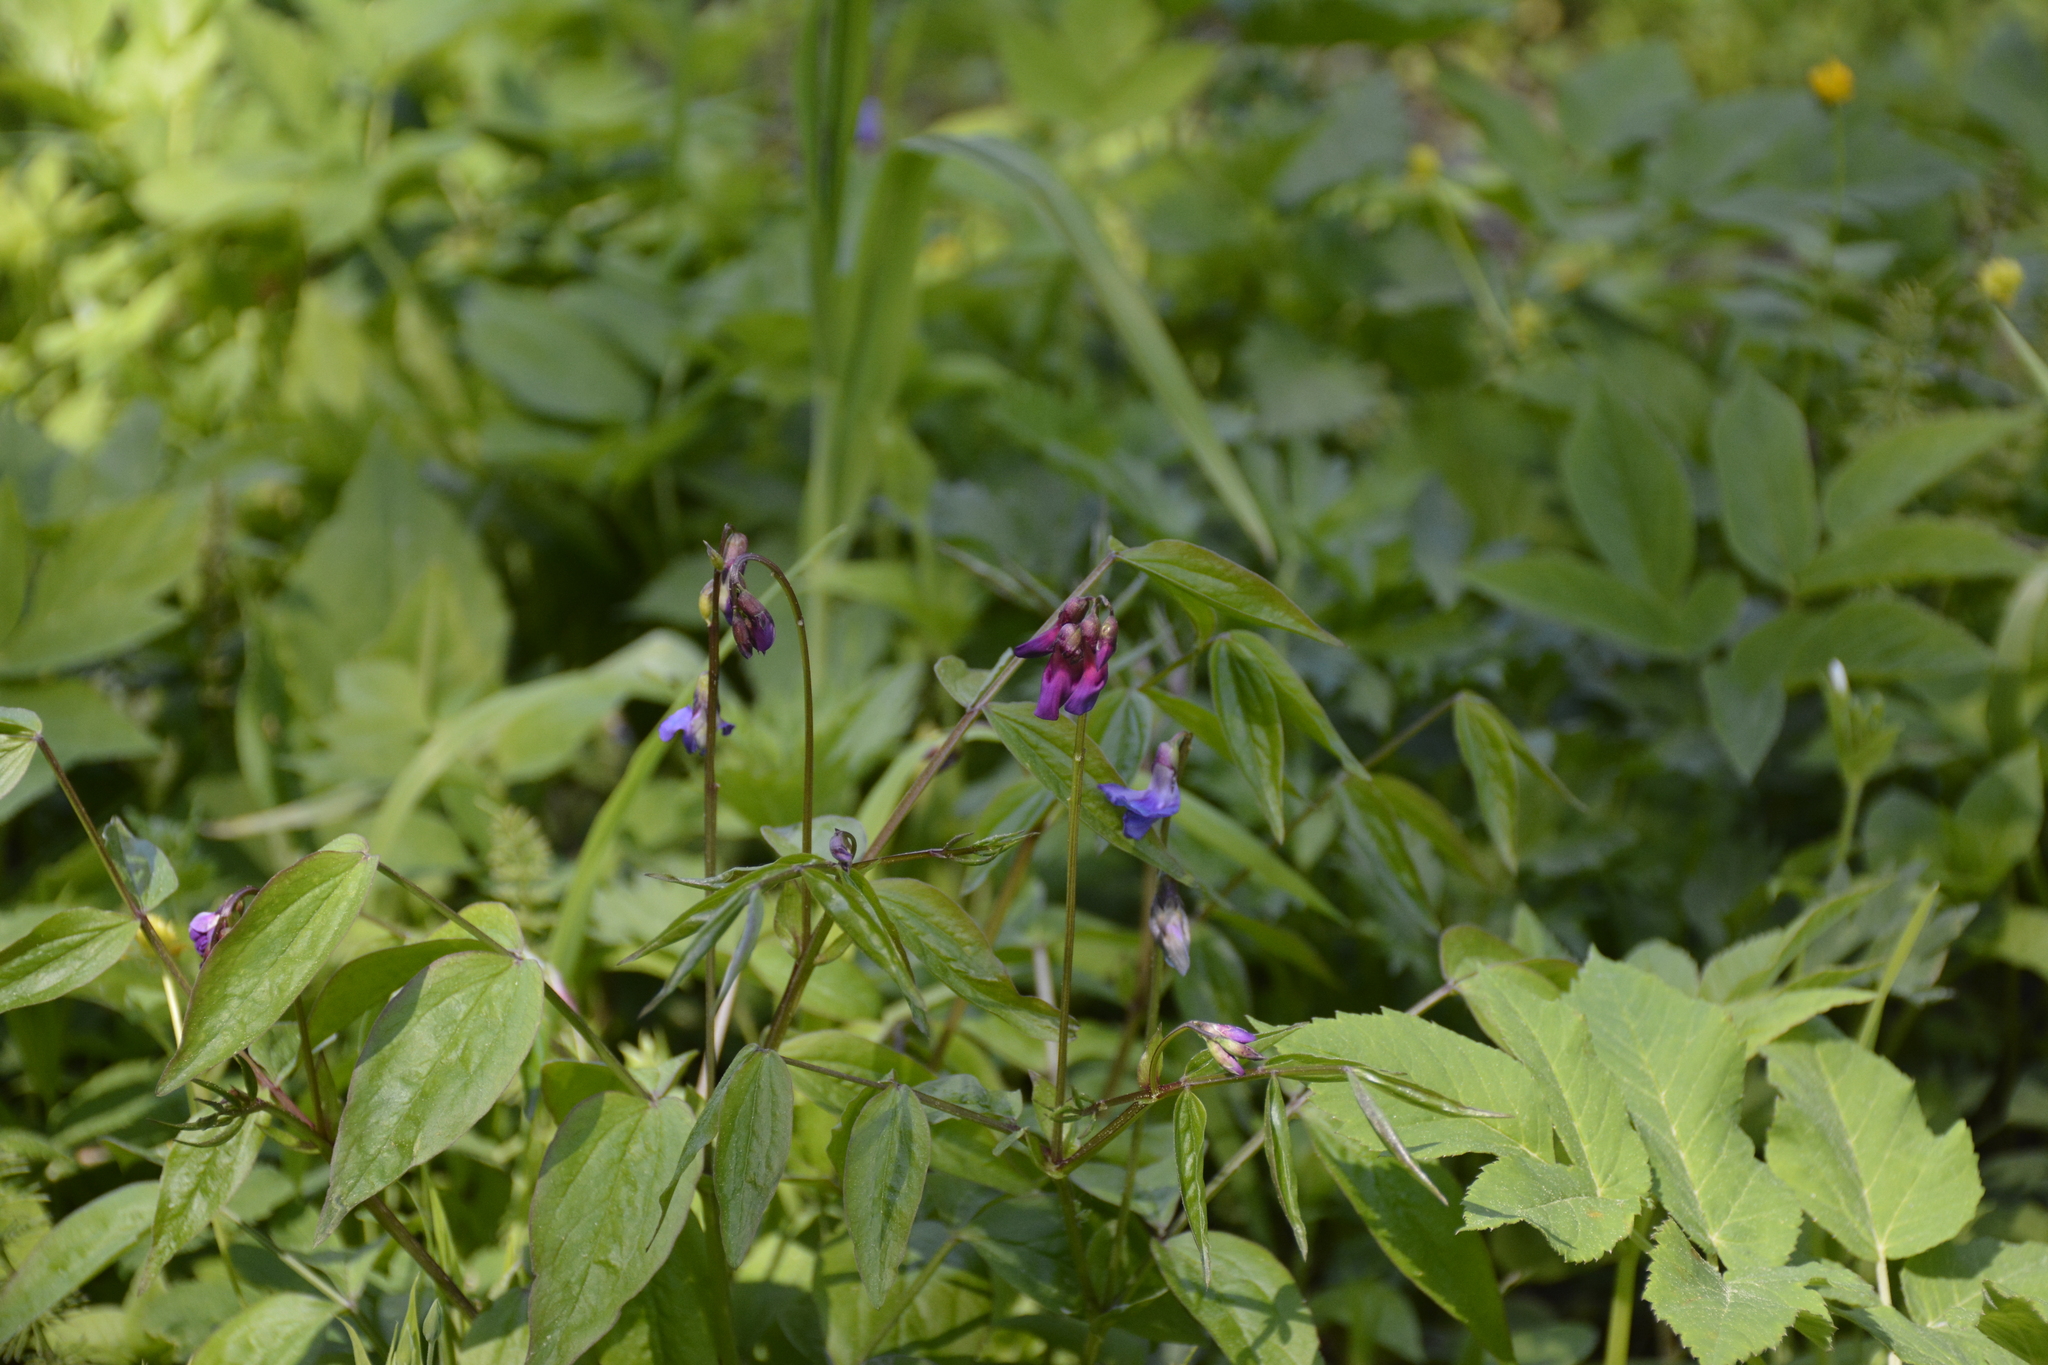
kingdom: Plantae
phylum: Tracheophyta
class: Magnoliopsida
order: Fabales
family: Fabaceae
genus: Lathyrus
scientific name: Lathyrus vernus
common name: Spring pea
